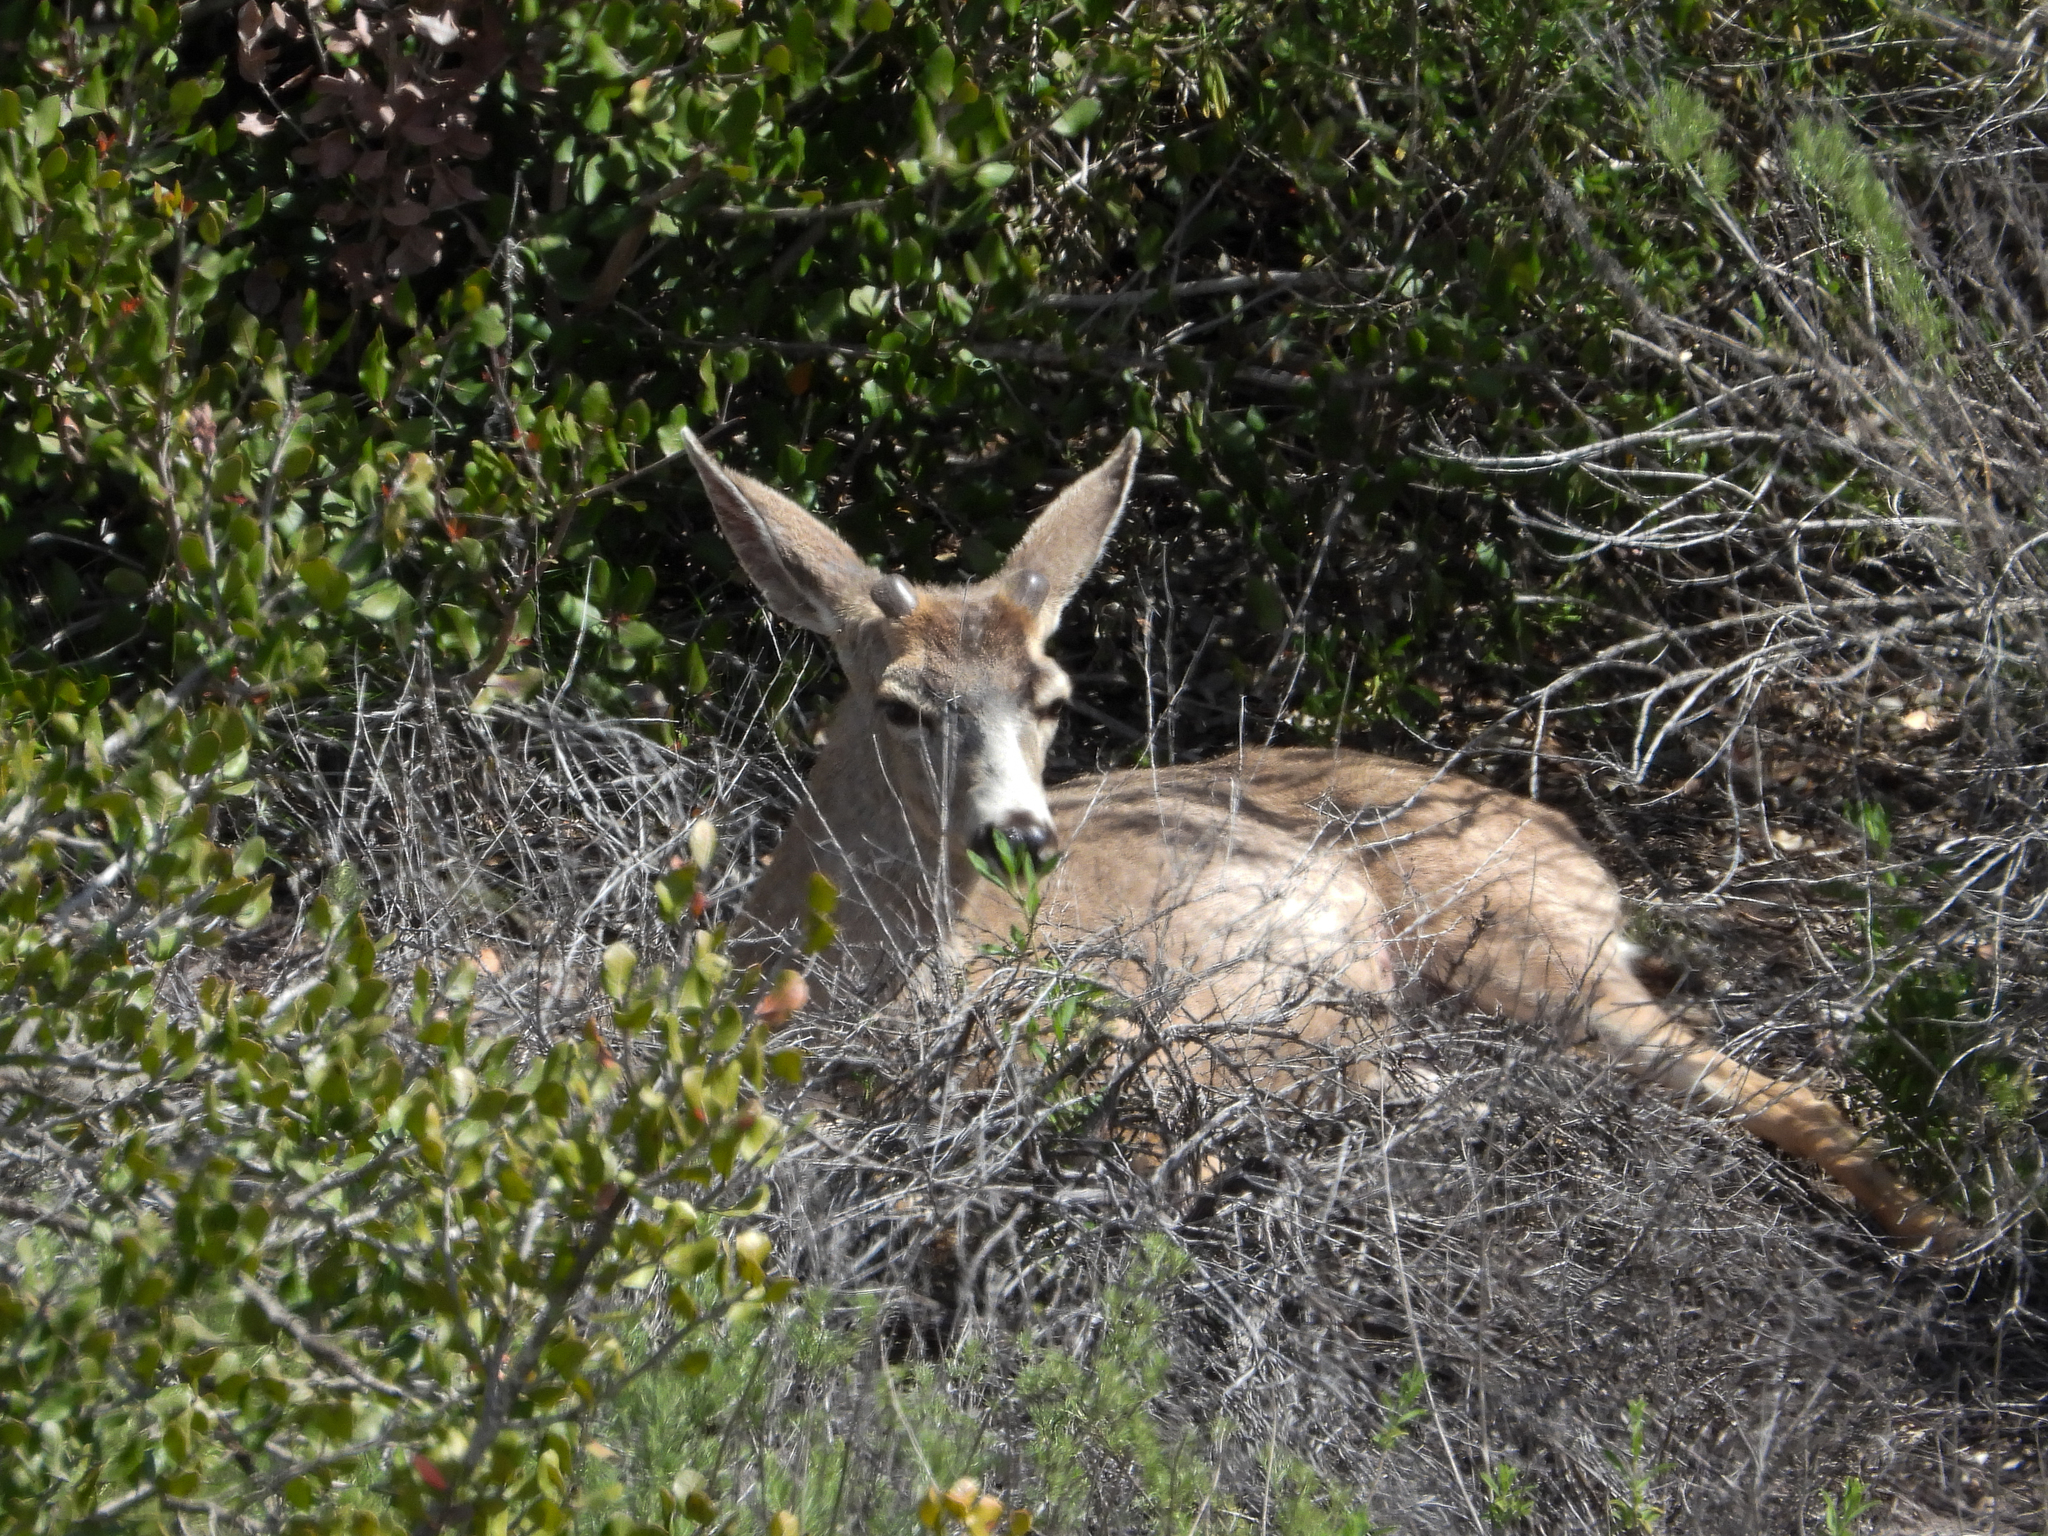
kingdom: Animalia
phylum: Chordata
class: Mammalia
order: Artiodactyla
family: Cervidae
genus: Odocoileus
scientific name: Odocoileus hemionus
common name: Mule deer
